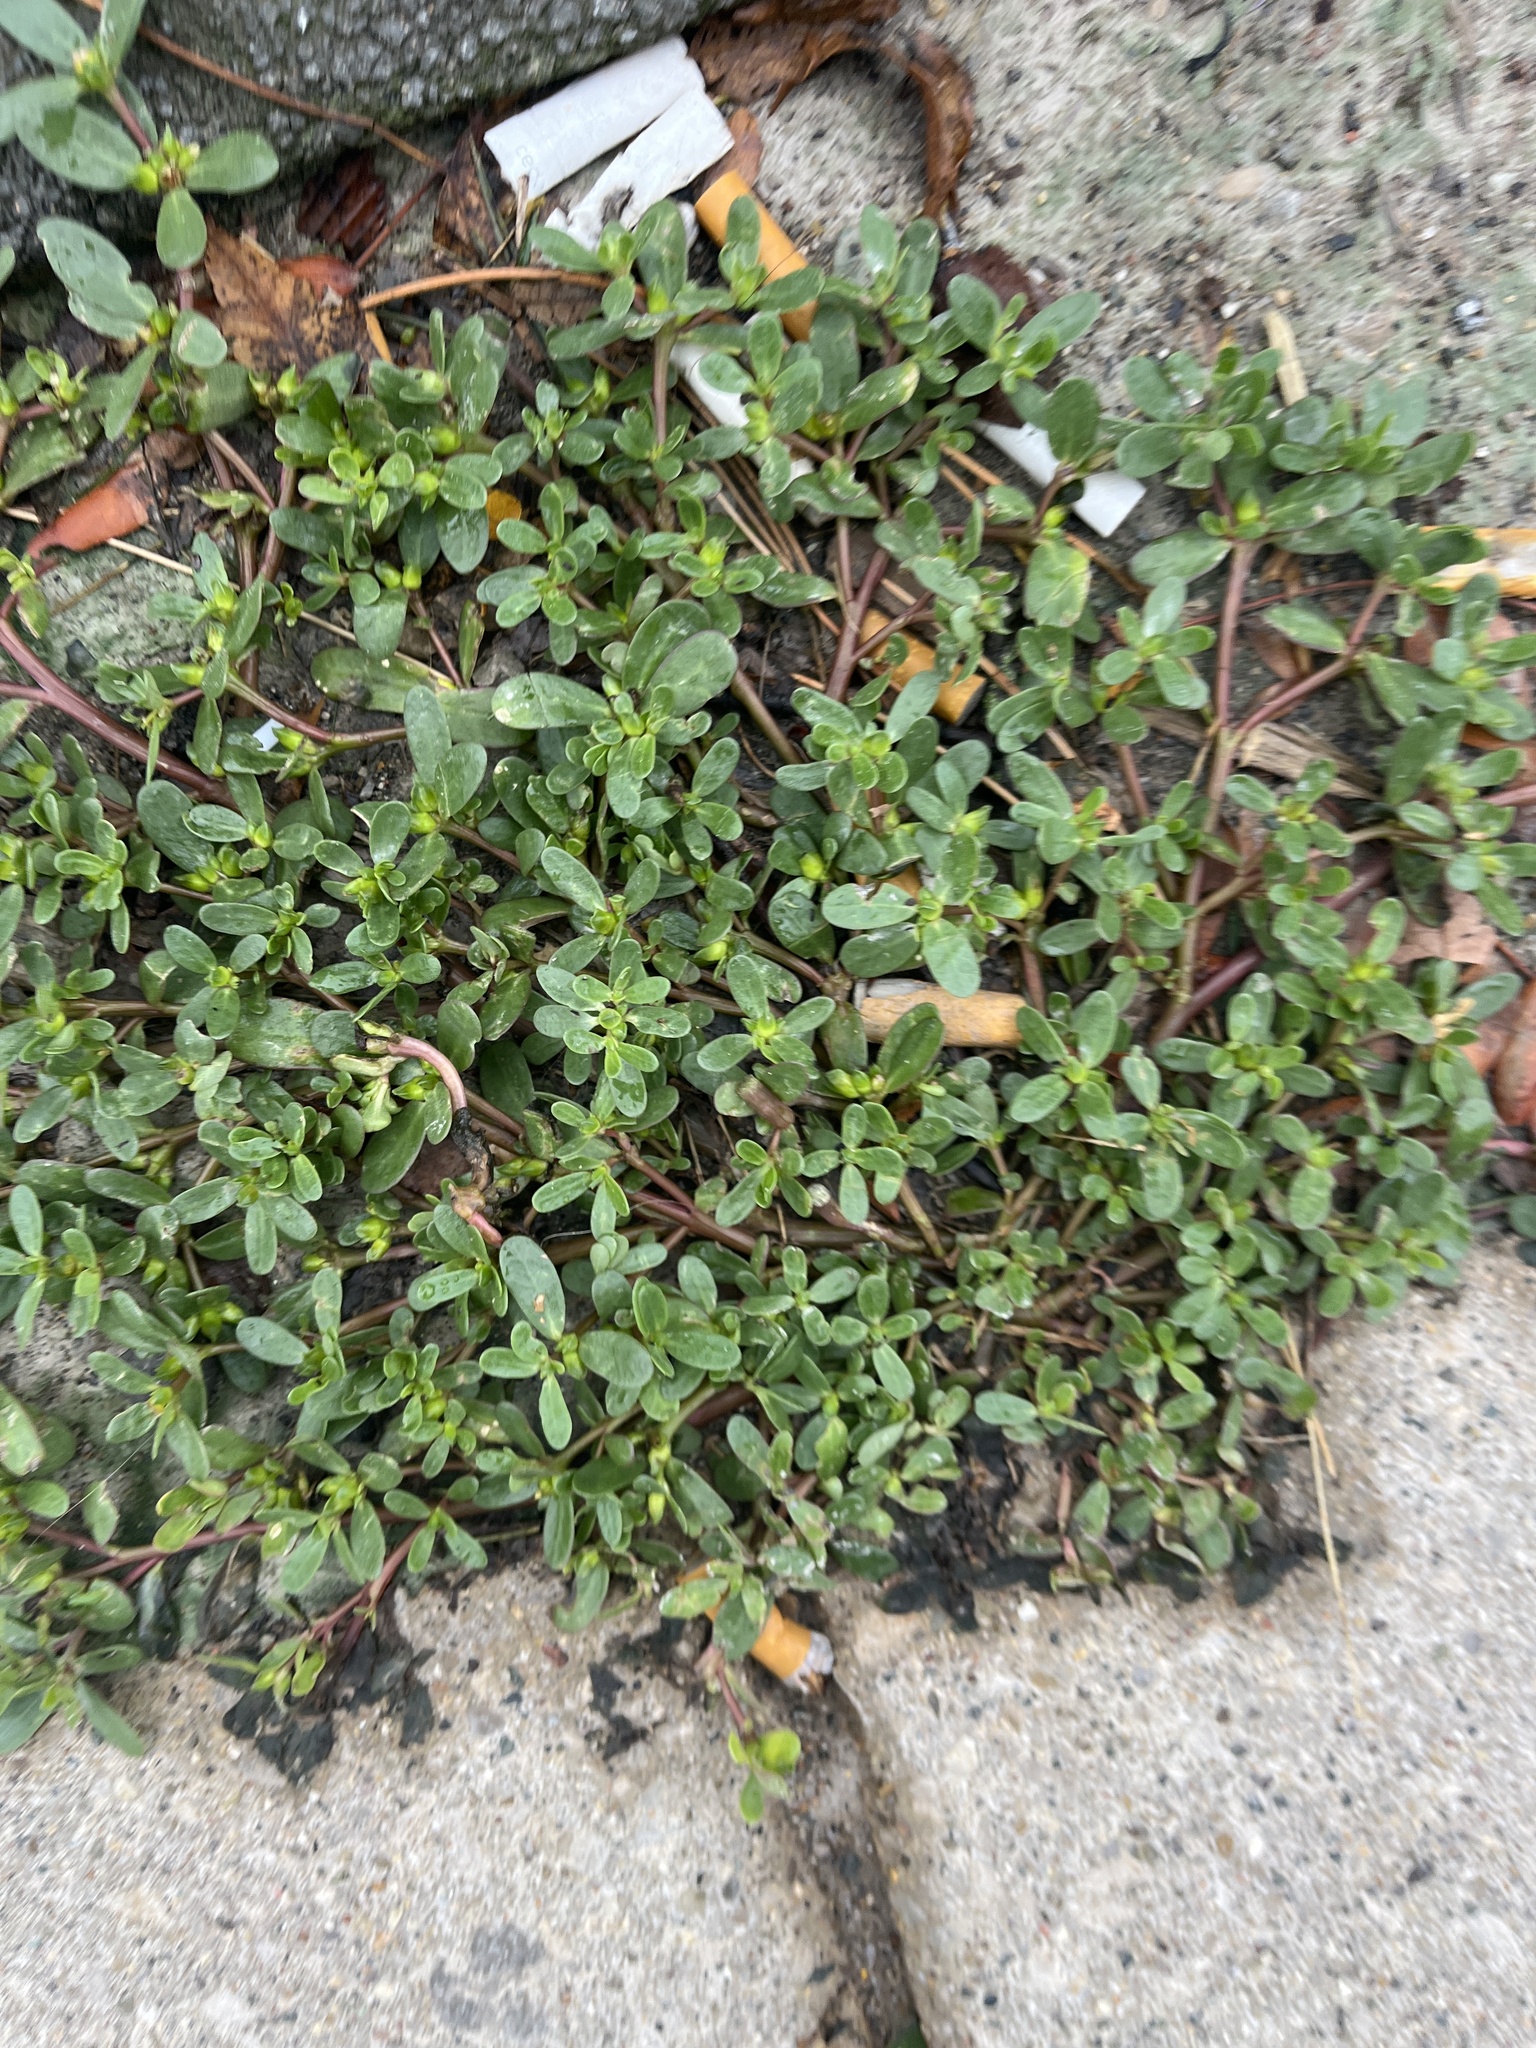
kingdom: Plantae
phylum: Tracheophyta
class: Magnoliopsida
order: Caryophyllales
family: Portulacaceae
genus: Portulaca
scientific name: Portulaca oleracea
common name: Common purslane
